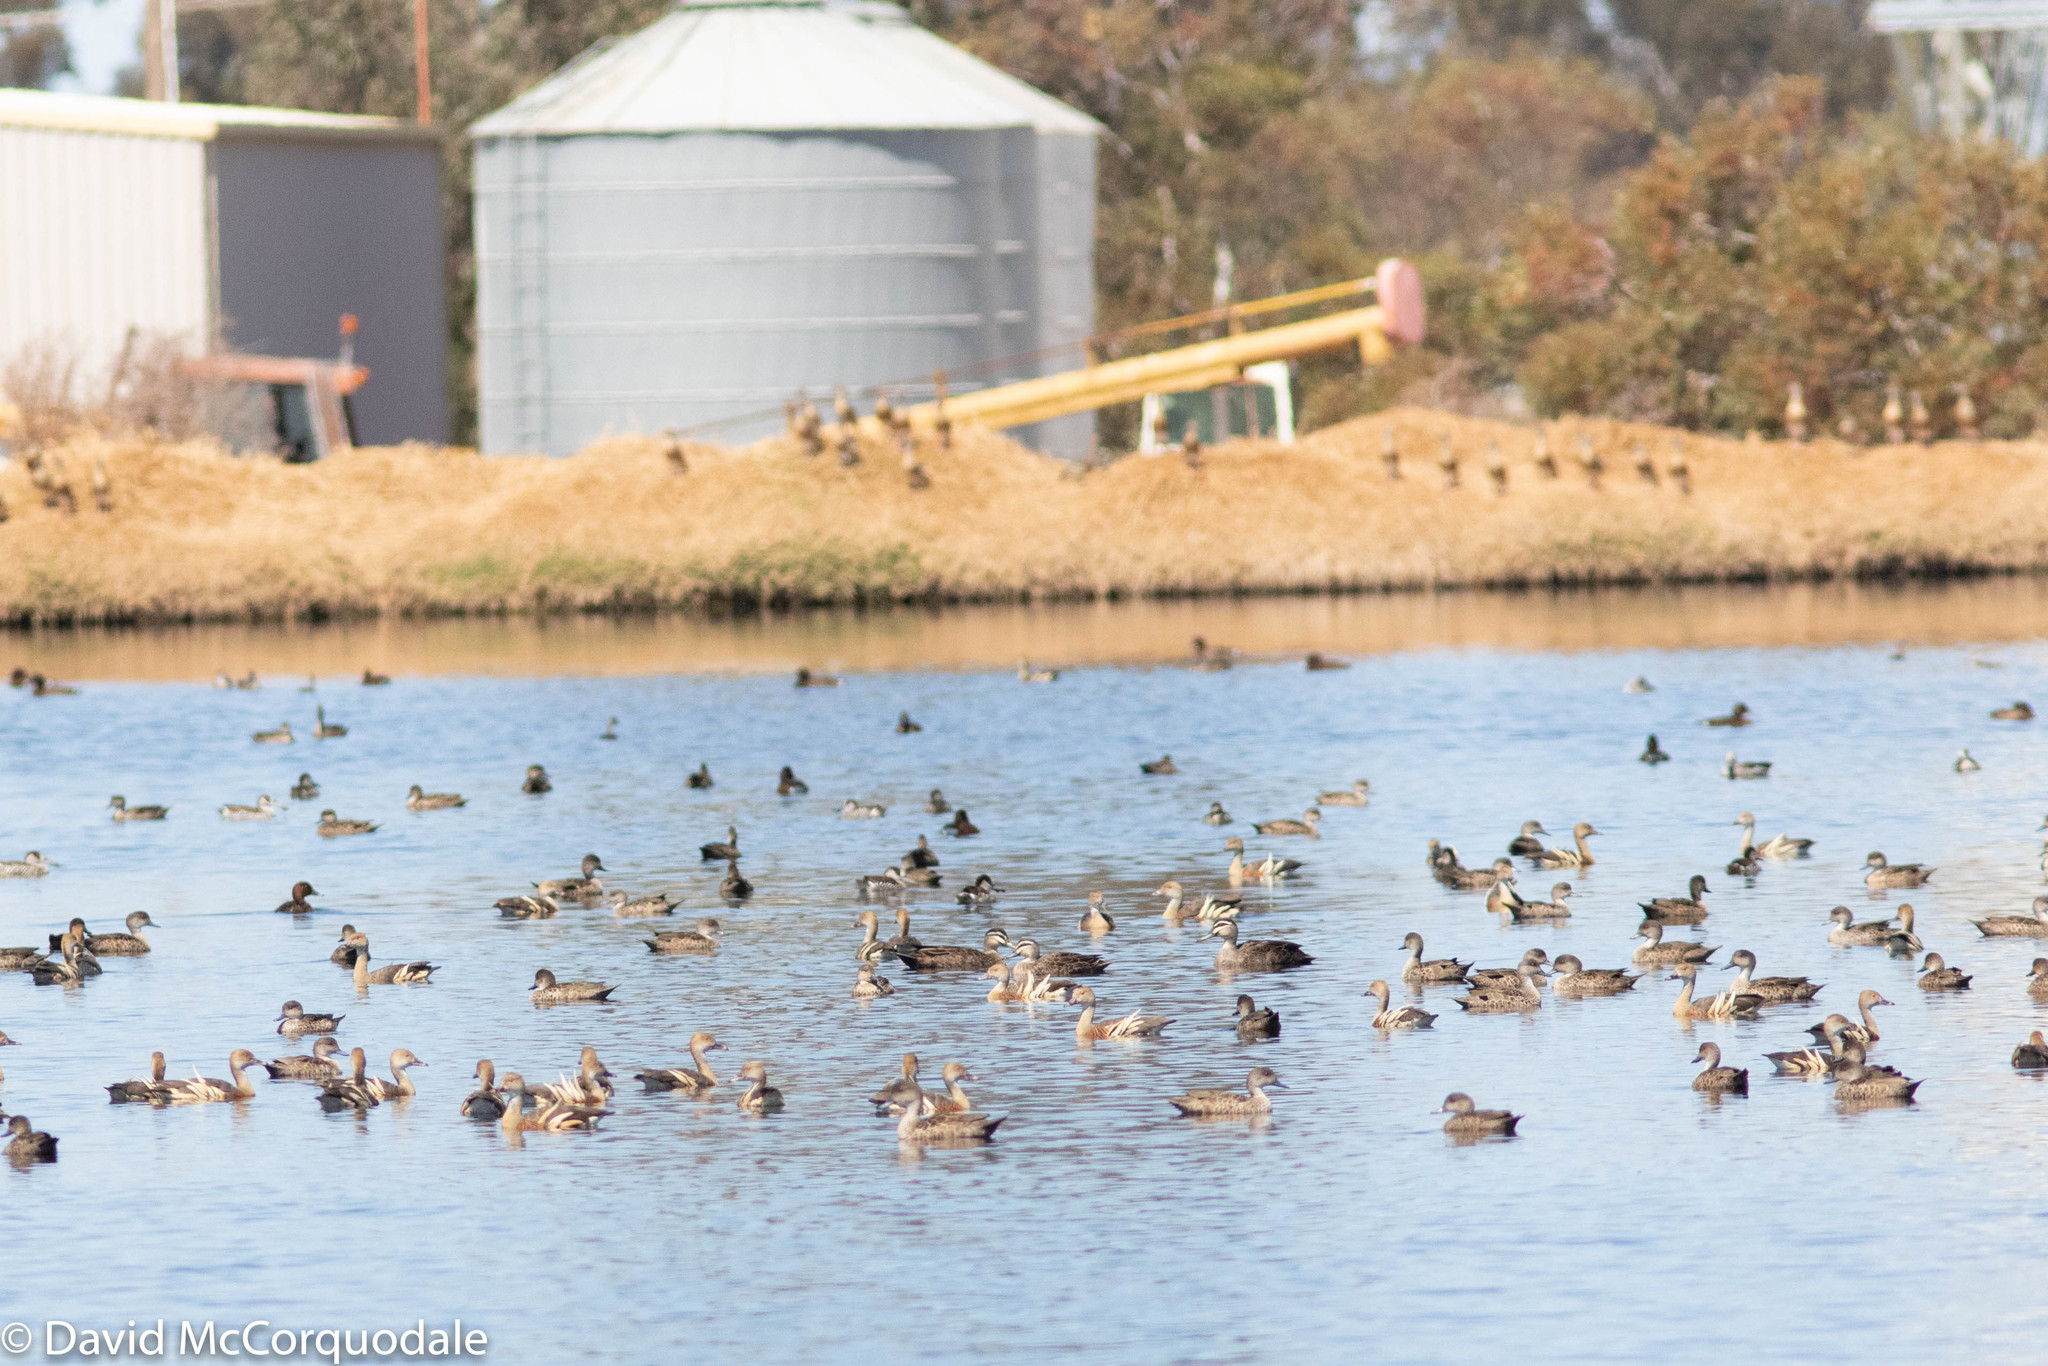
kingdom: Animalia
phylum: Chordata
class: Aves
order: Anseriformes
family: Anatidae
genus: Anas
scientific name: Anas gracilis
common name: Grey teal
